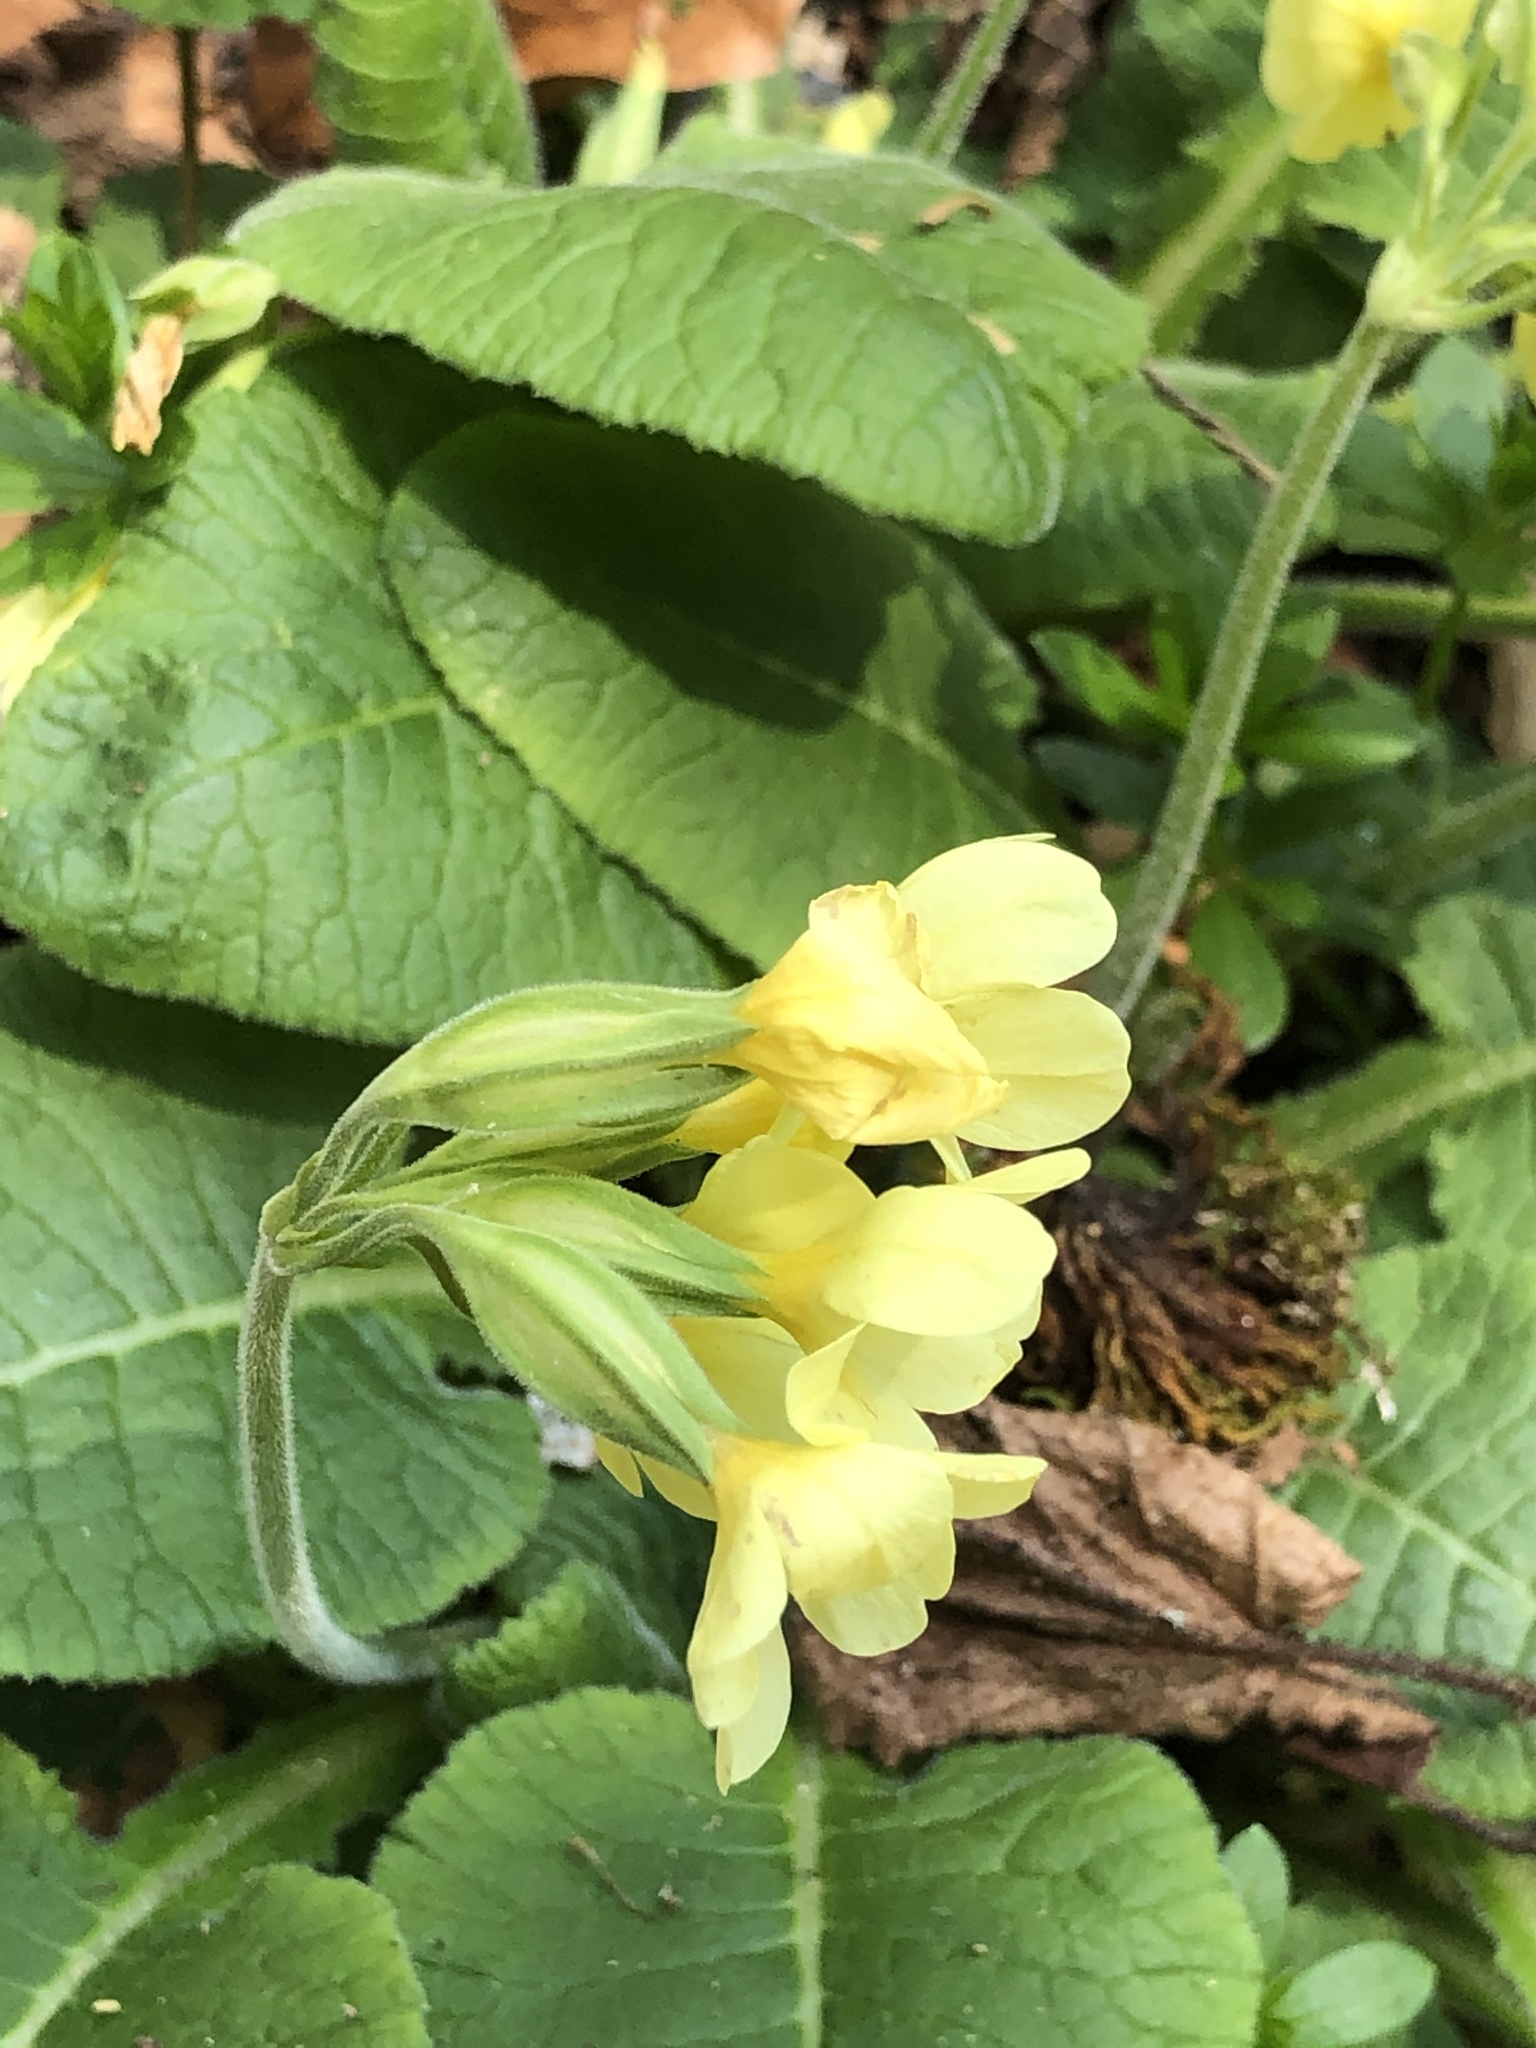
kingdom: Plantae
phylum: Tracheophyta
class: Magnoliopsida
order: Ericales
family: Primulaceae
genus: Primula
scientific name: Primula elatior
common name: Oxlip
